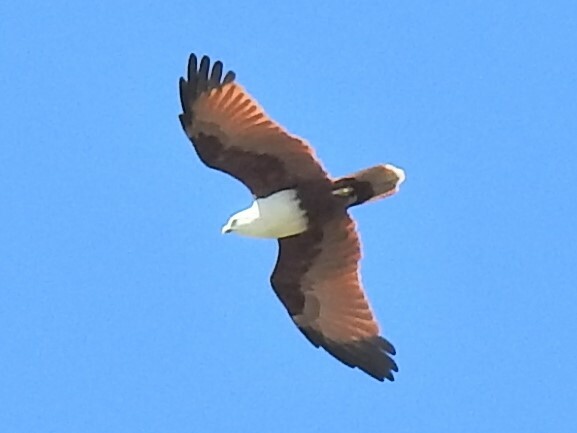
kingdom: Animalia
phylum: Chordata
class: Aves
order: Accipitriformes
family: Accipitridae
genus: Haliastur
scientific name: Haliastur indus
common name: Brahminy kite
